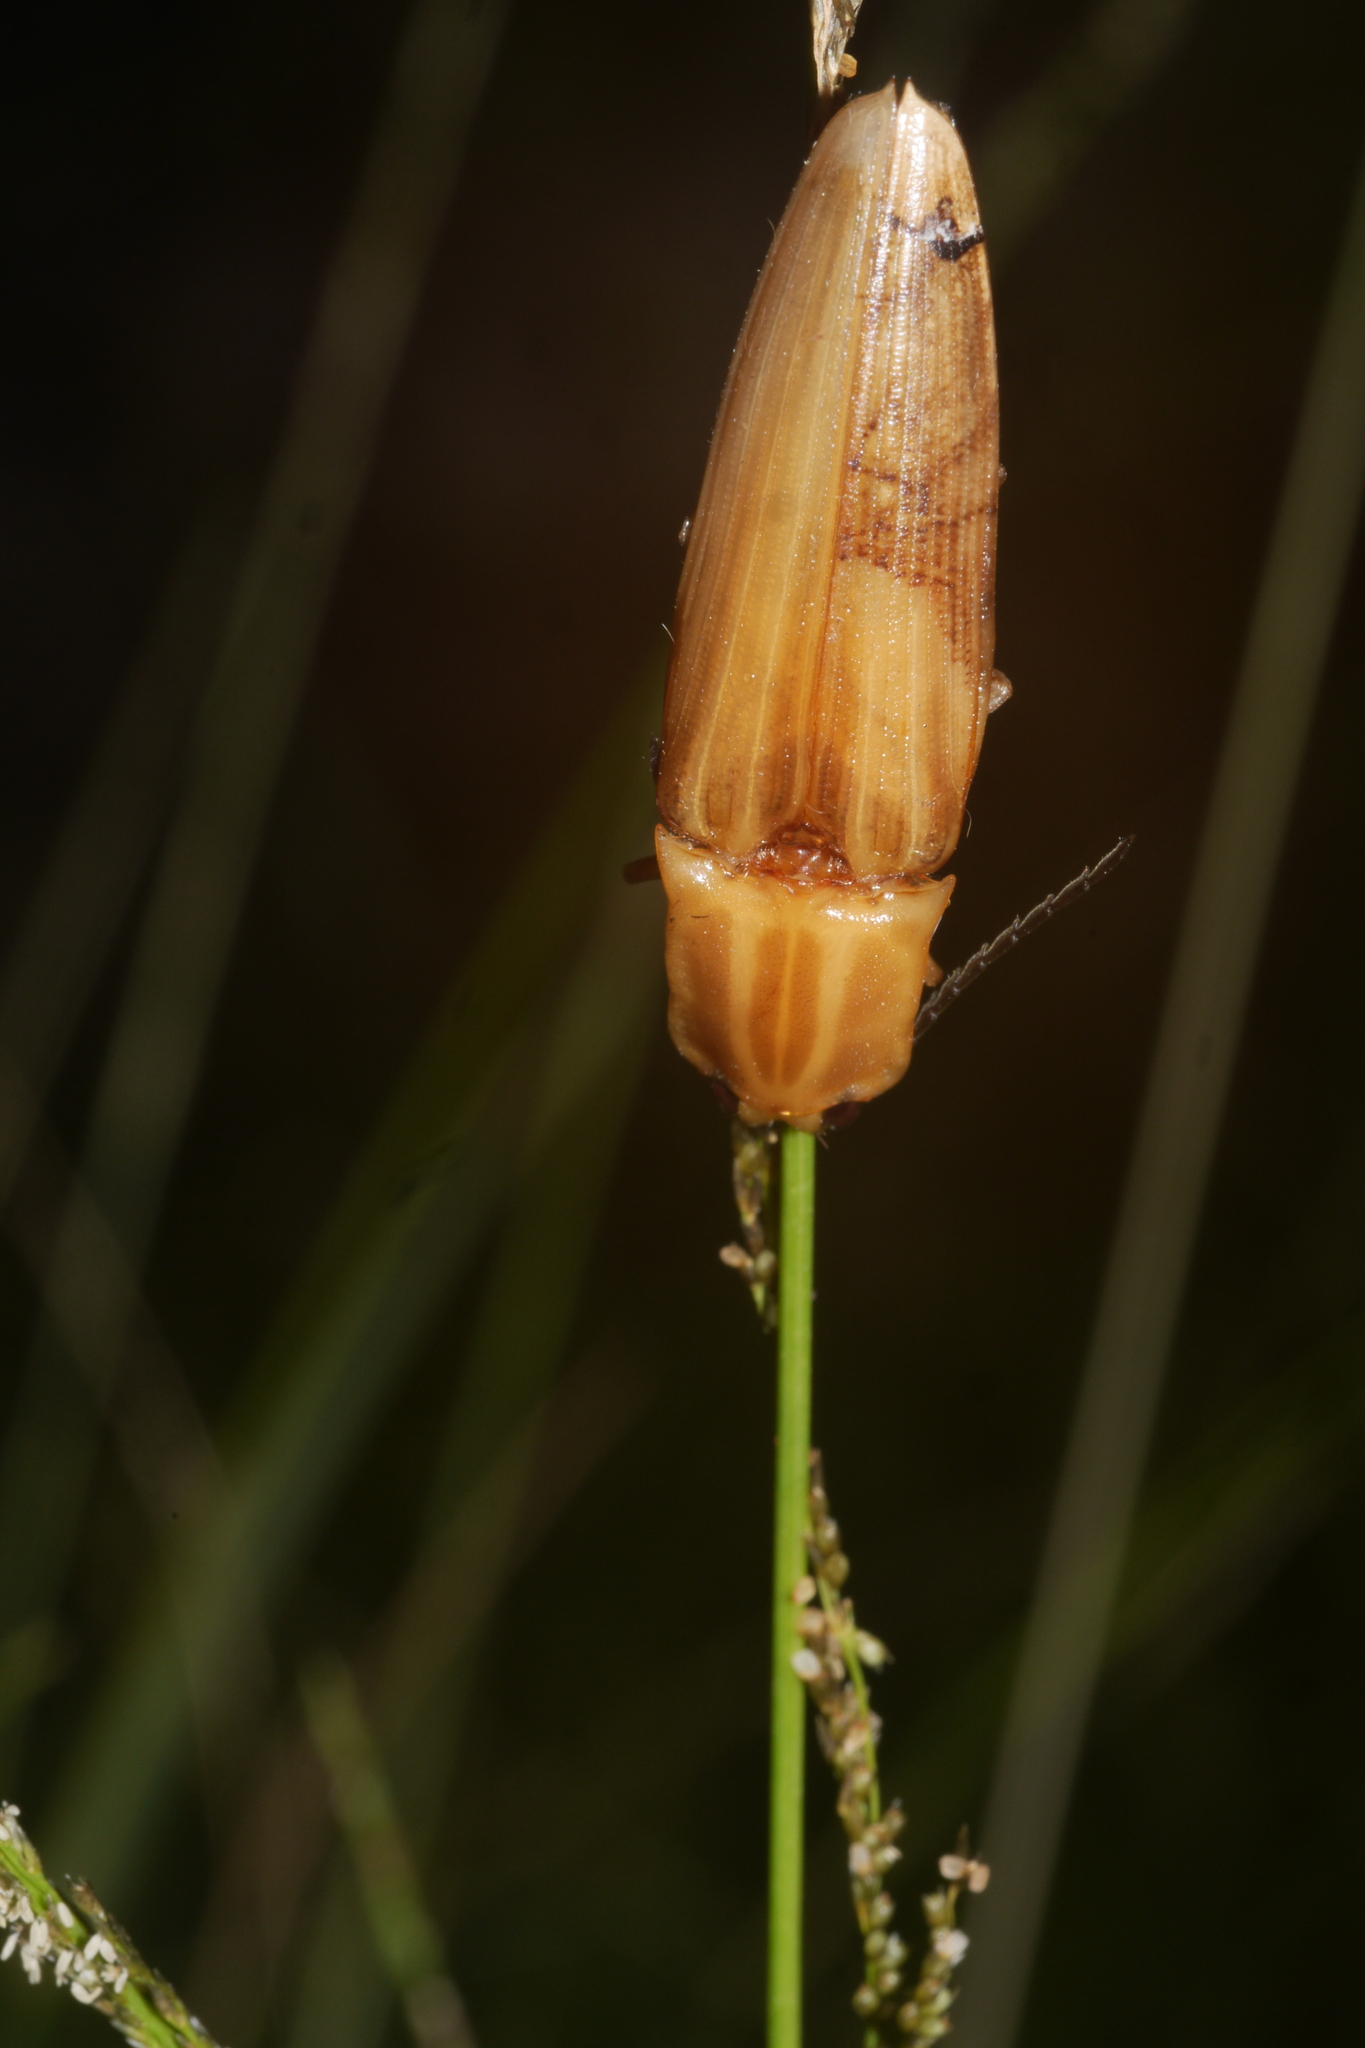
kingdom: Animalia
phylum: Arthropoda
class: Insecta
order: Coleoptera
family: Elateridae
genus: Semiotus
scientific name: Semiotus ligneus
